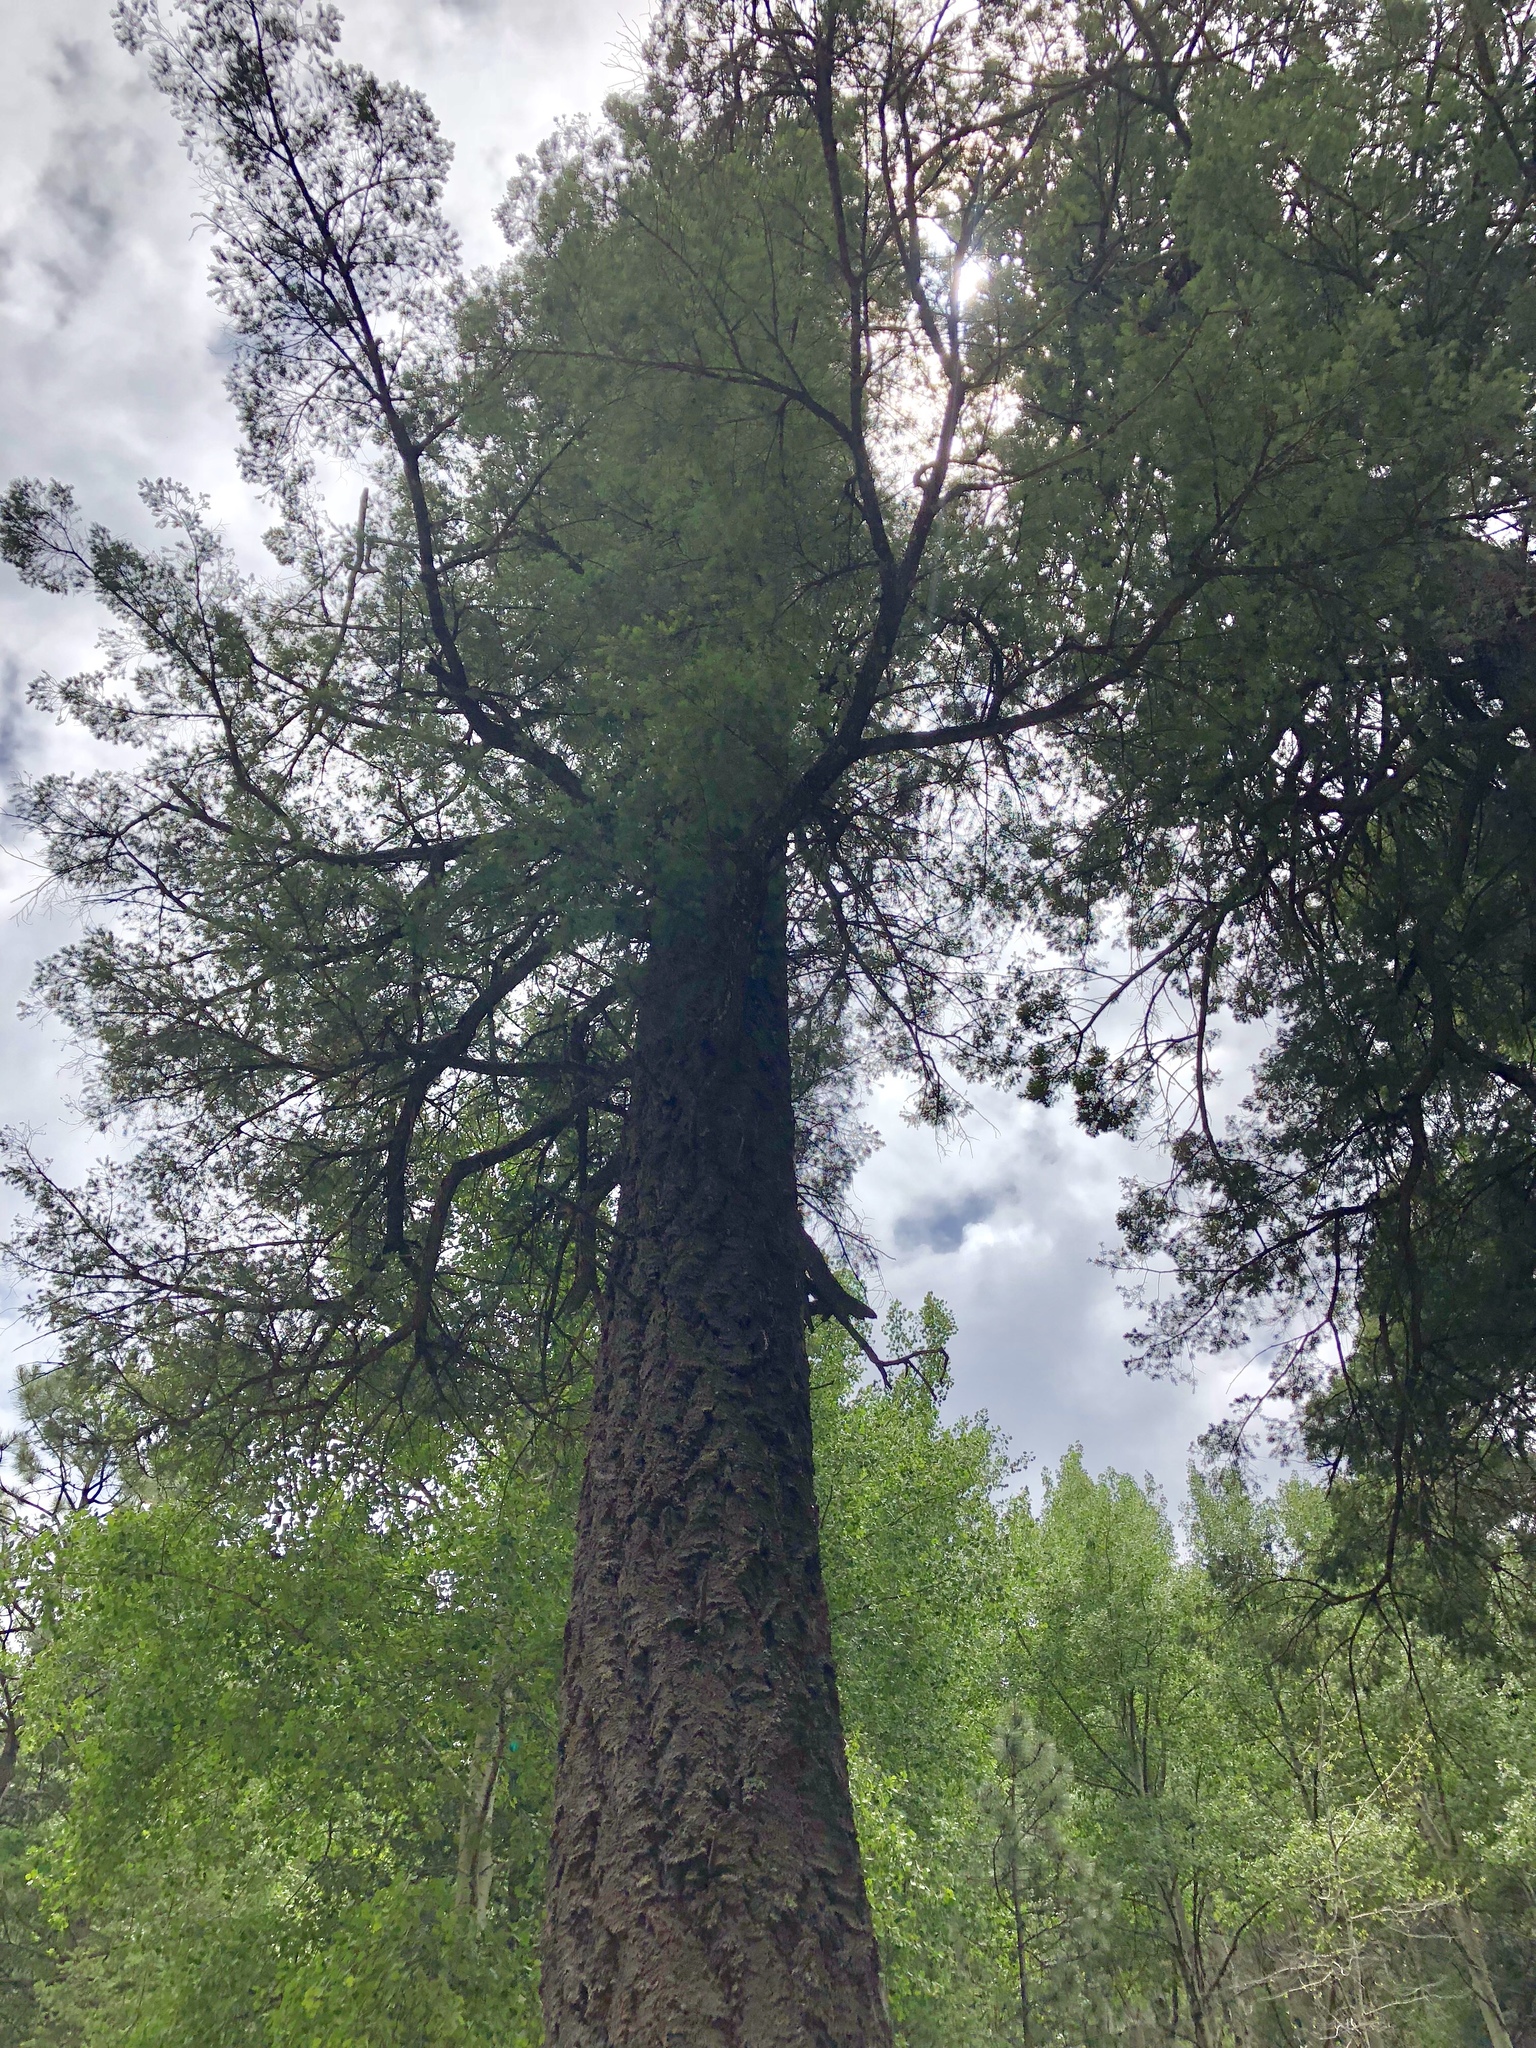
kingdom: Plantae
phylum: Tracheophyta
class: Pinopsida
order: Pinales
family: Pinaceae
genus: Pseudotsuga
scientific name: Pseudotsuga menziesii
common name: Douglas fir
